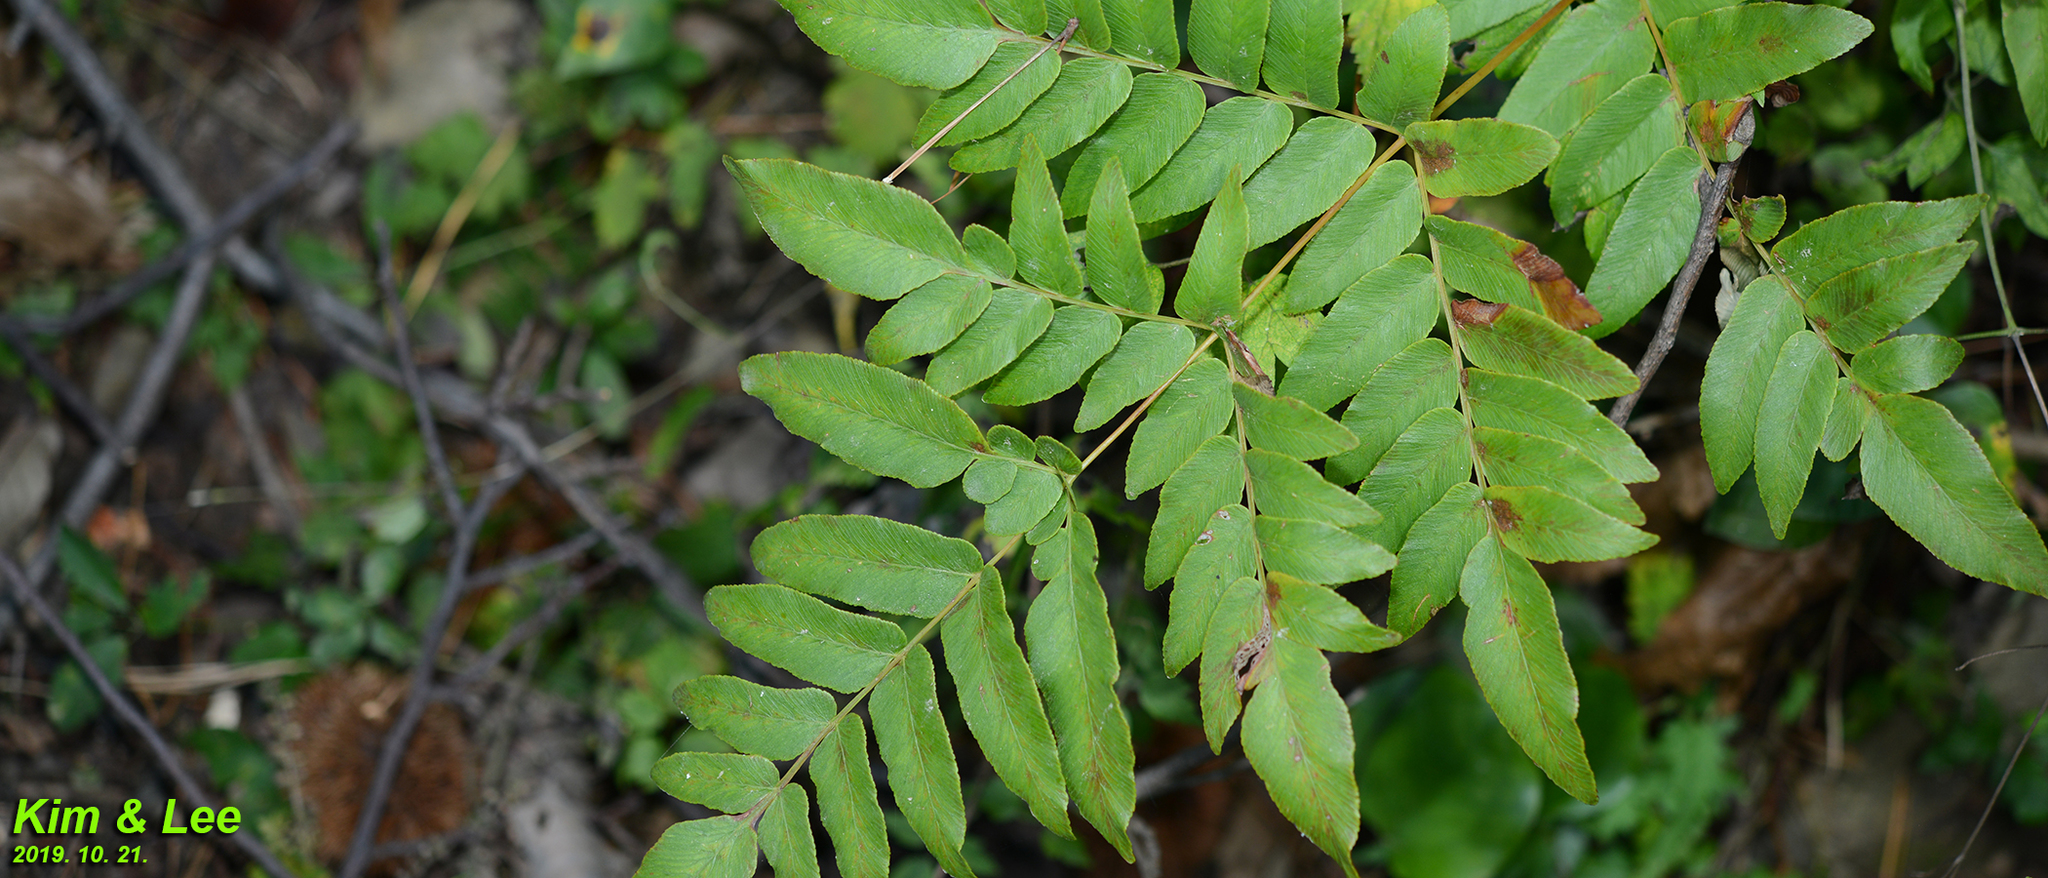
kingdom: Plantae
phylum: Tracheophyta
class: Polypodiopsida
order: Osmundales
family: Osmundaceae
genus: Osmunda
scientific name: Osmunda japonica
